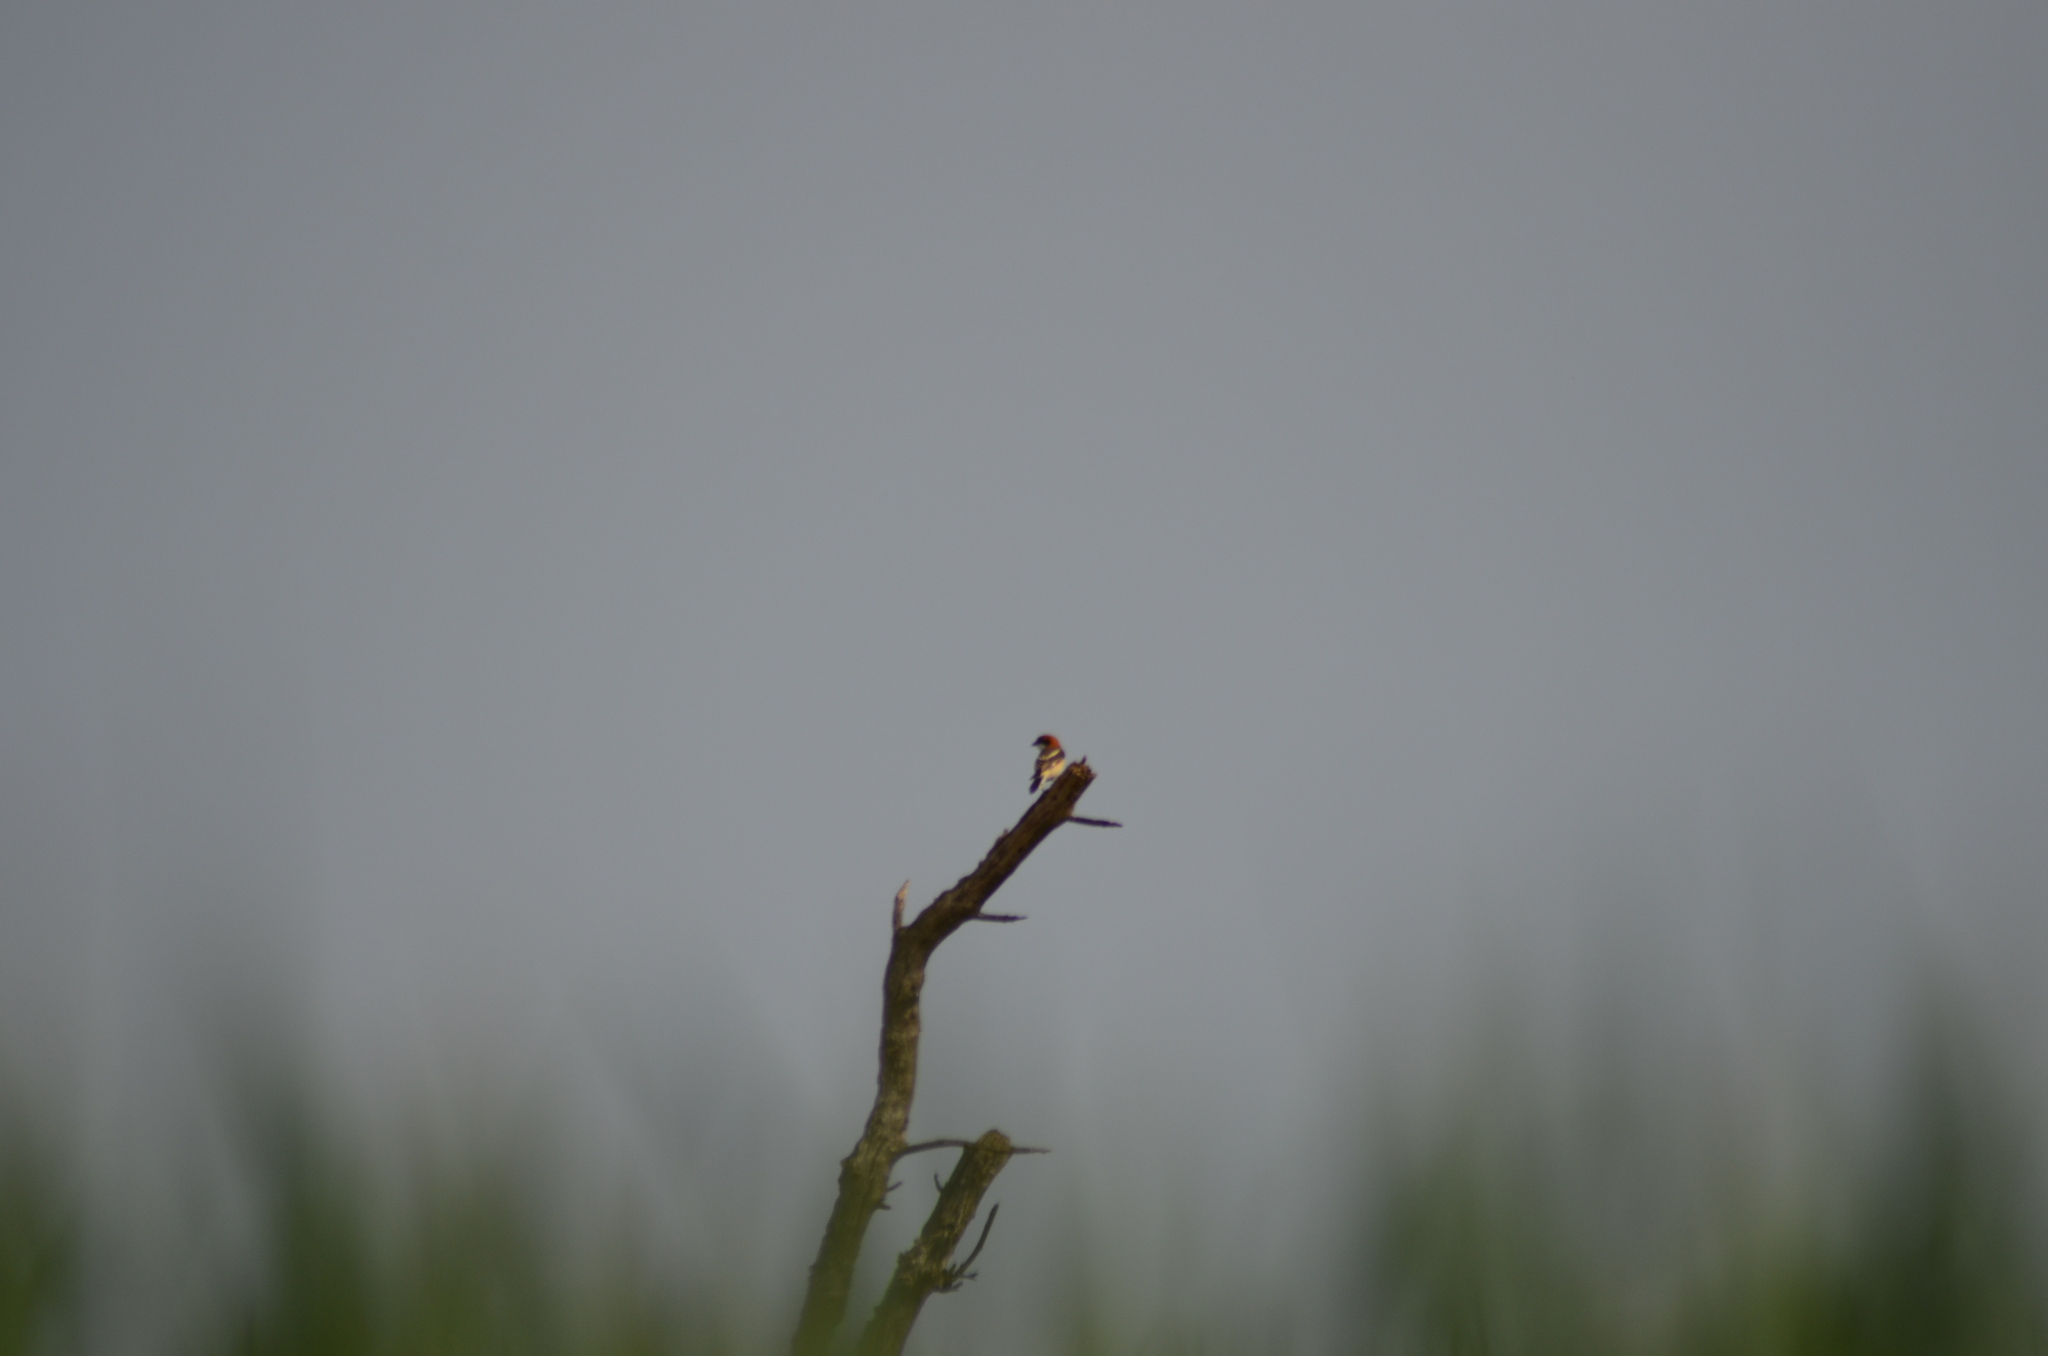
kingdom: Animalia
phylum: Chordata
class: Aves
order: Passeriformes
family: Laniidae
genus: Lanius
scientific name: Lanius senator
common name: Woodchat shrike
